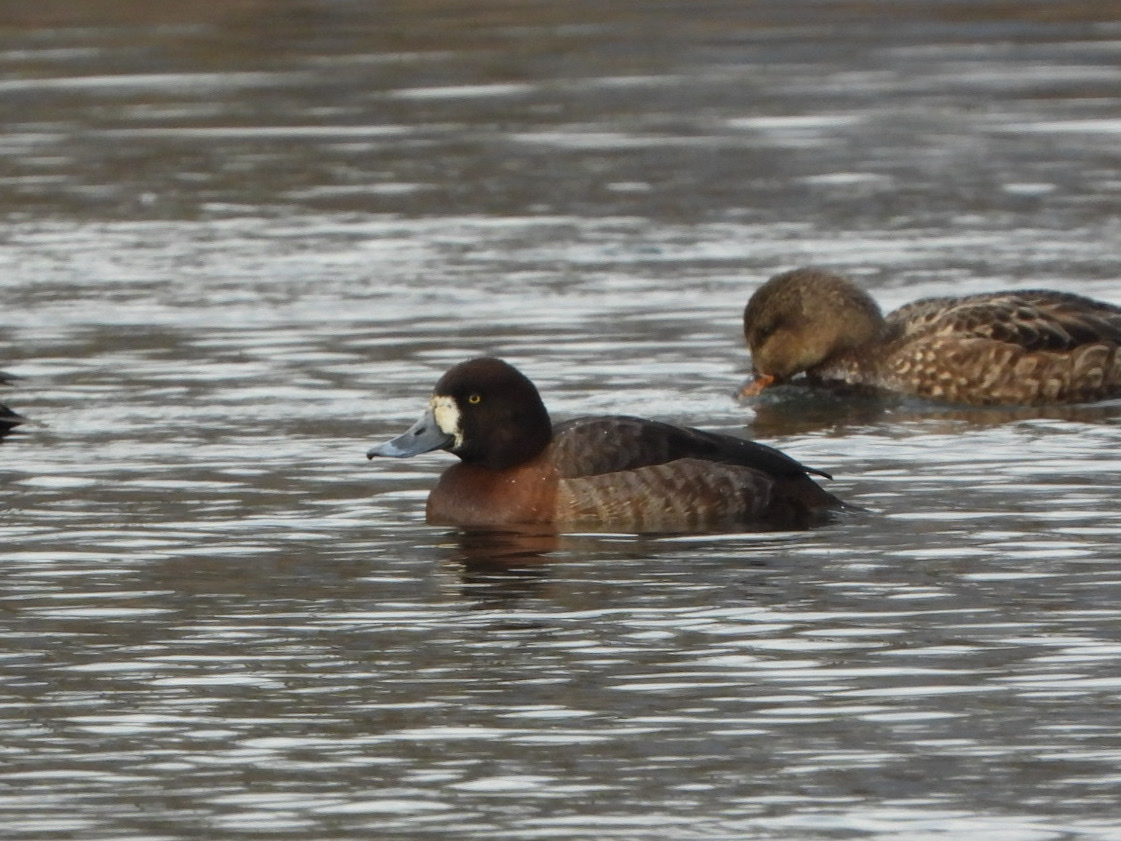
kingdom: Animalia
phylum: Chordata
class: Aves
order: Anseriformes
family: Anatidae
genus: Aythya
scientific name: Aythya marila
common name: Greater scaup
